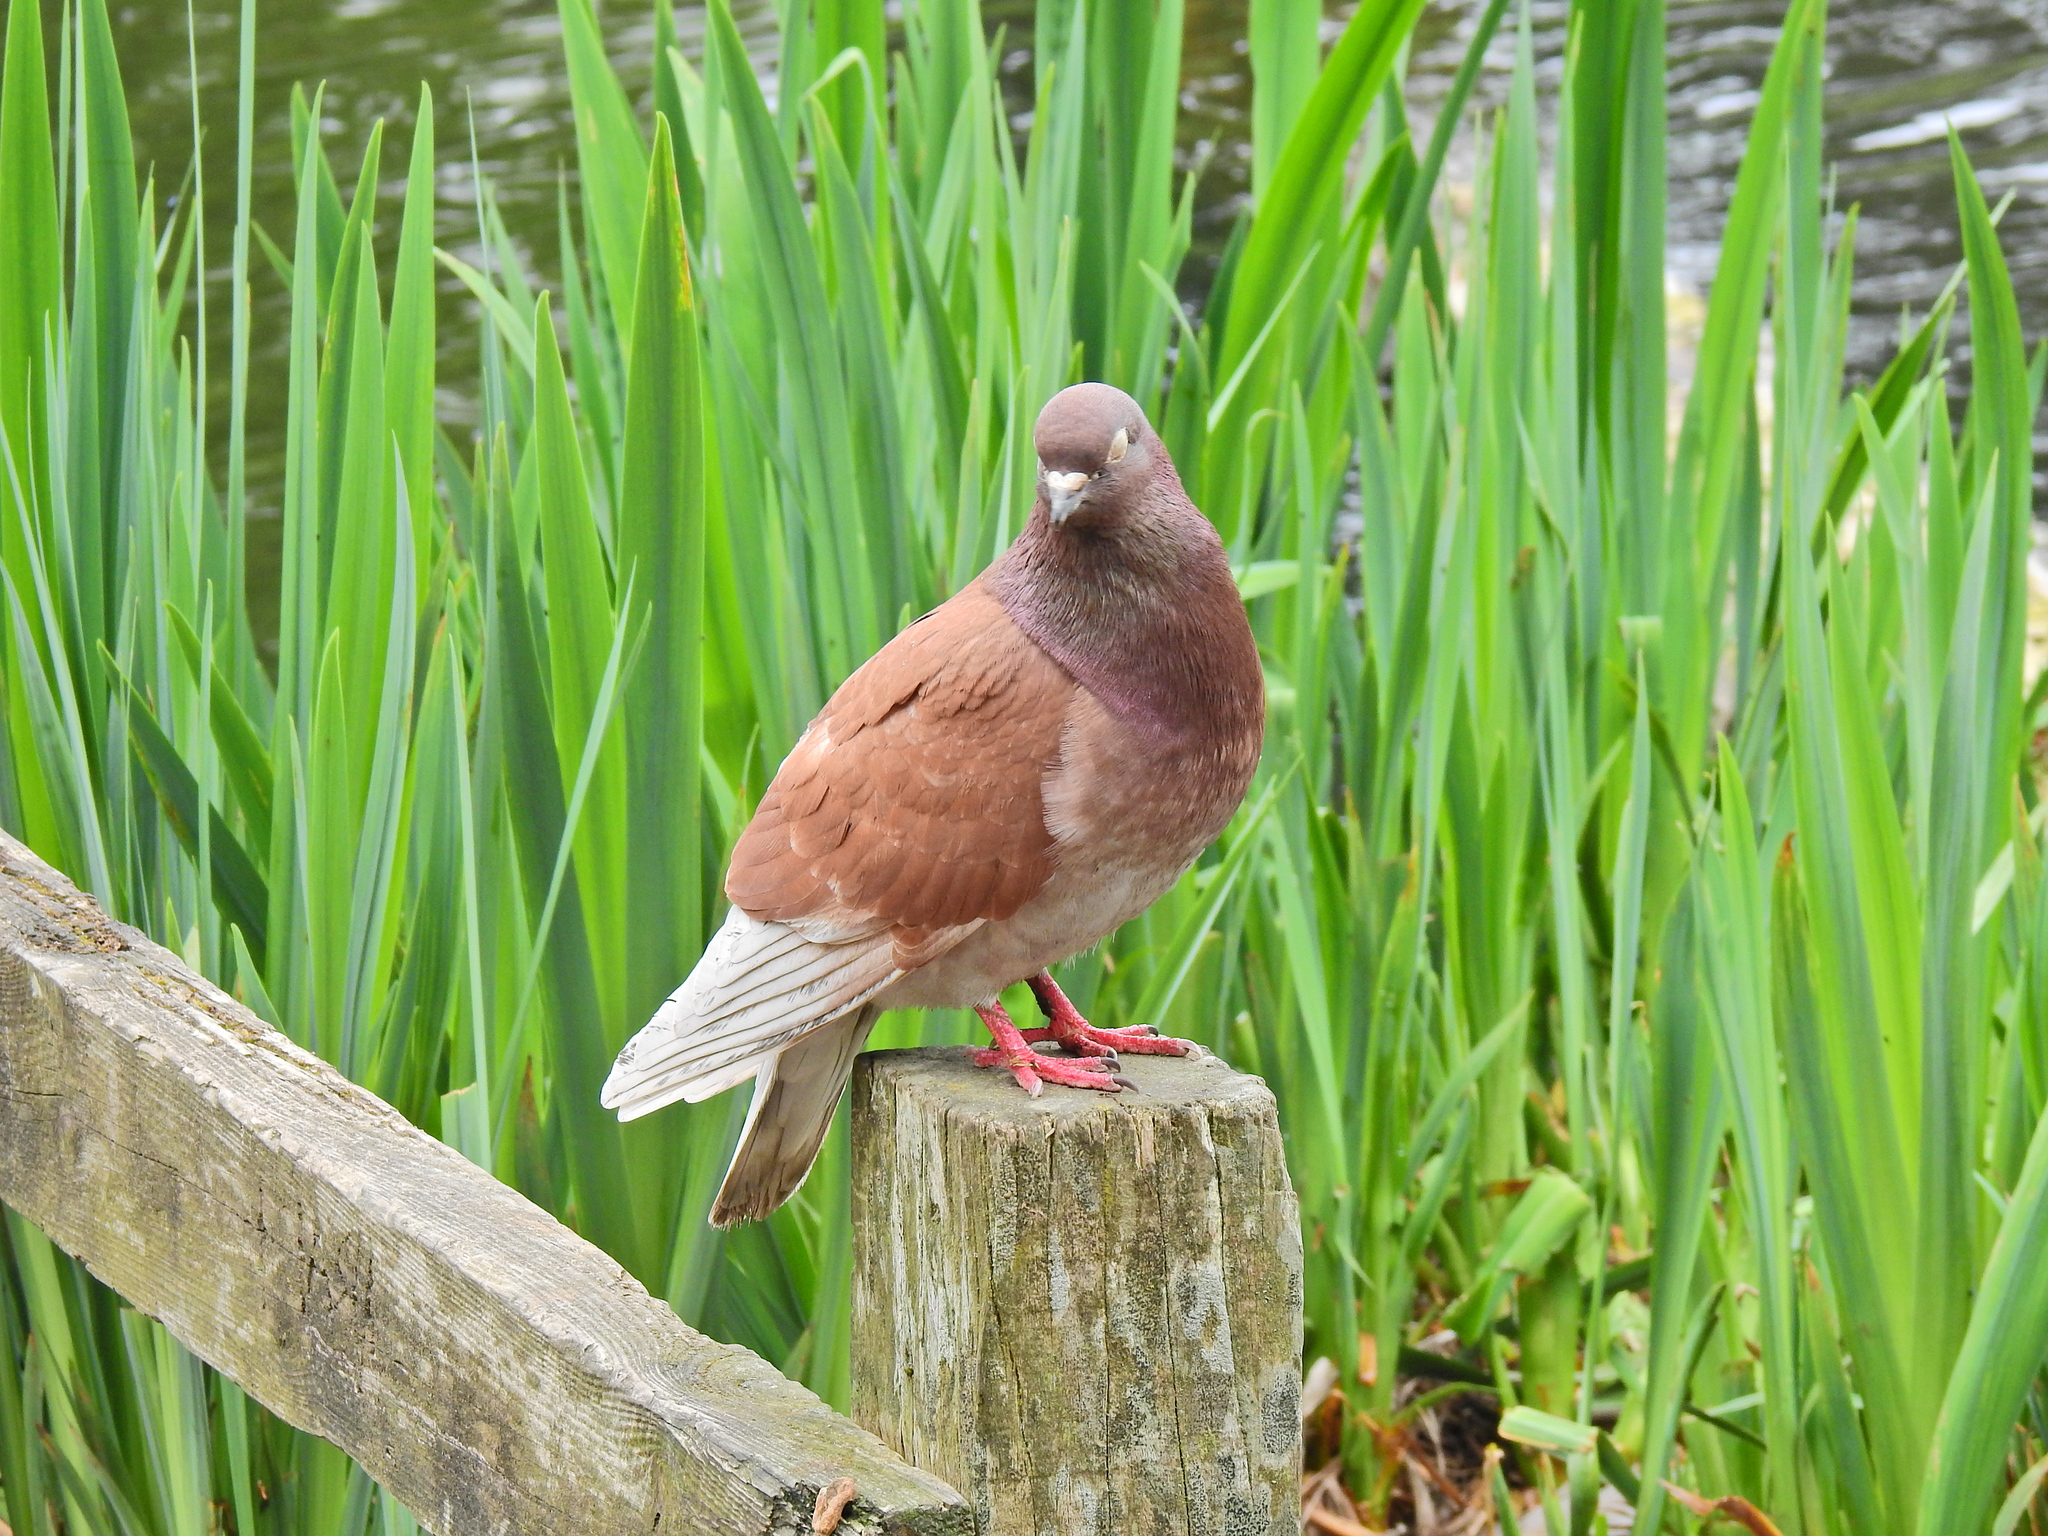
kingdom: Animalia
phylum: Chordata
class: Aves
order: Columbiformes
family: Columbidae
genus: Columba
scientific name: Columba livia
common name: Rock pigeon
